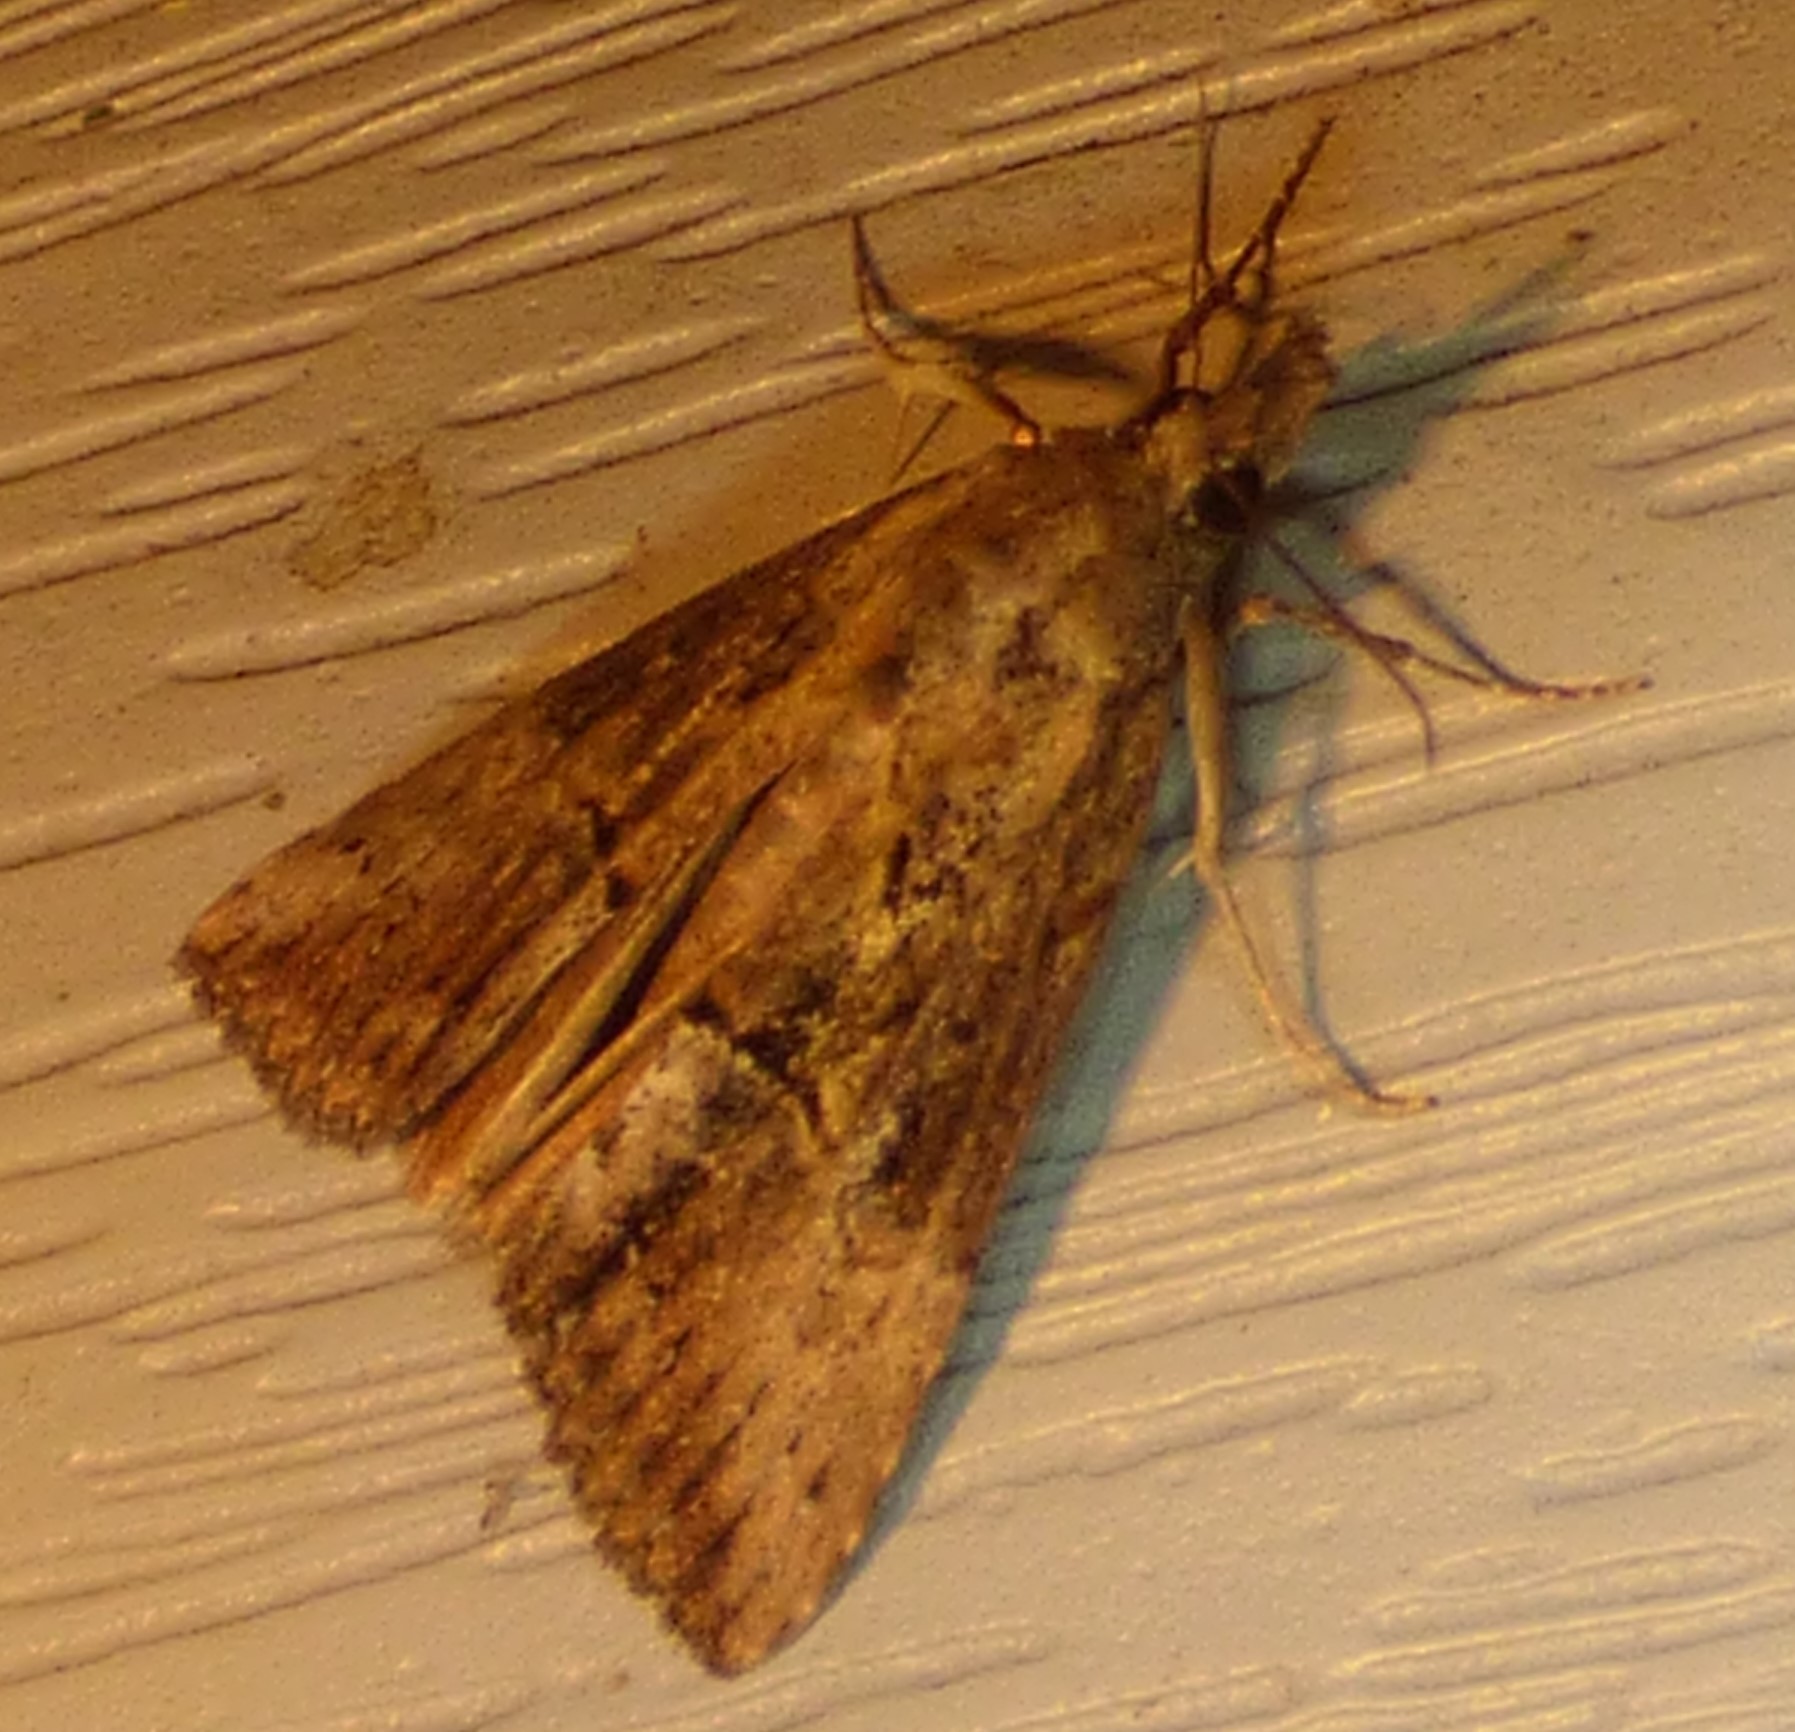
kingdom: Animalia
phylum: Arthropoda
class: Insecta
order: Lepidoptera
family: Erebidae
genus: Hypena
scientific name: Hypena scabra
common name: Green cloverworm
